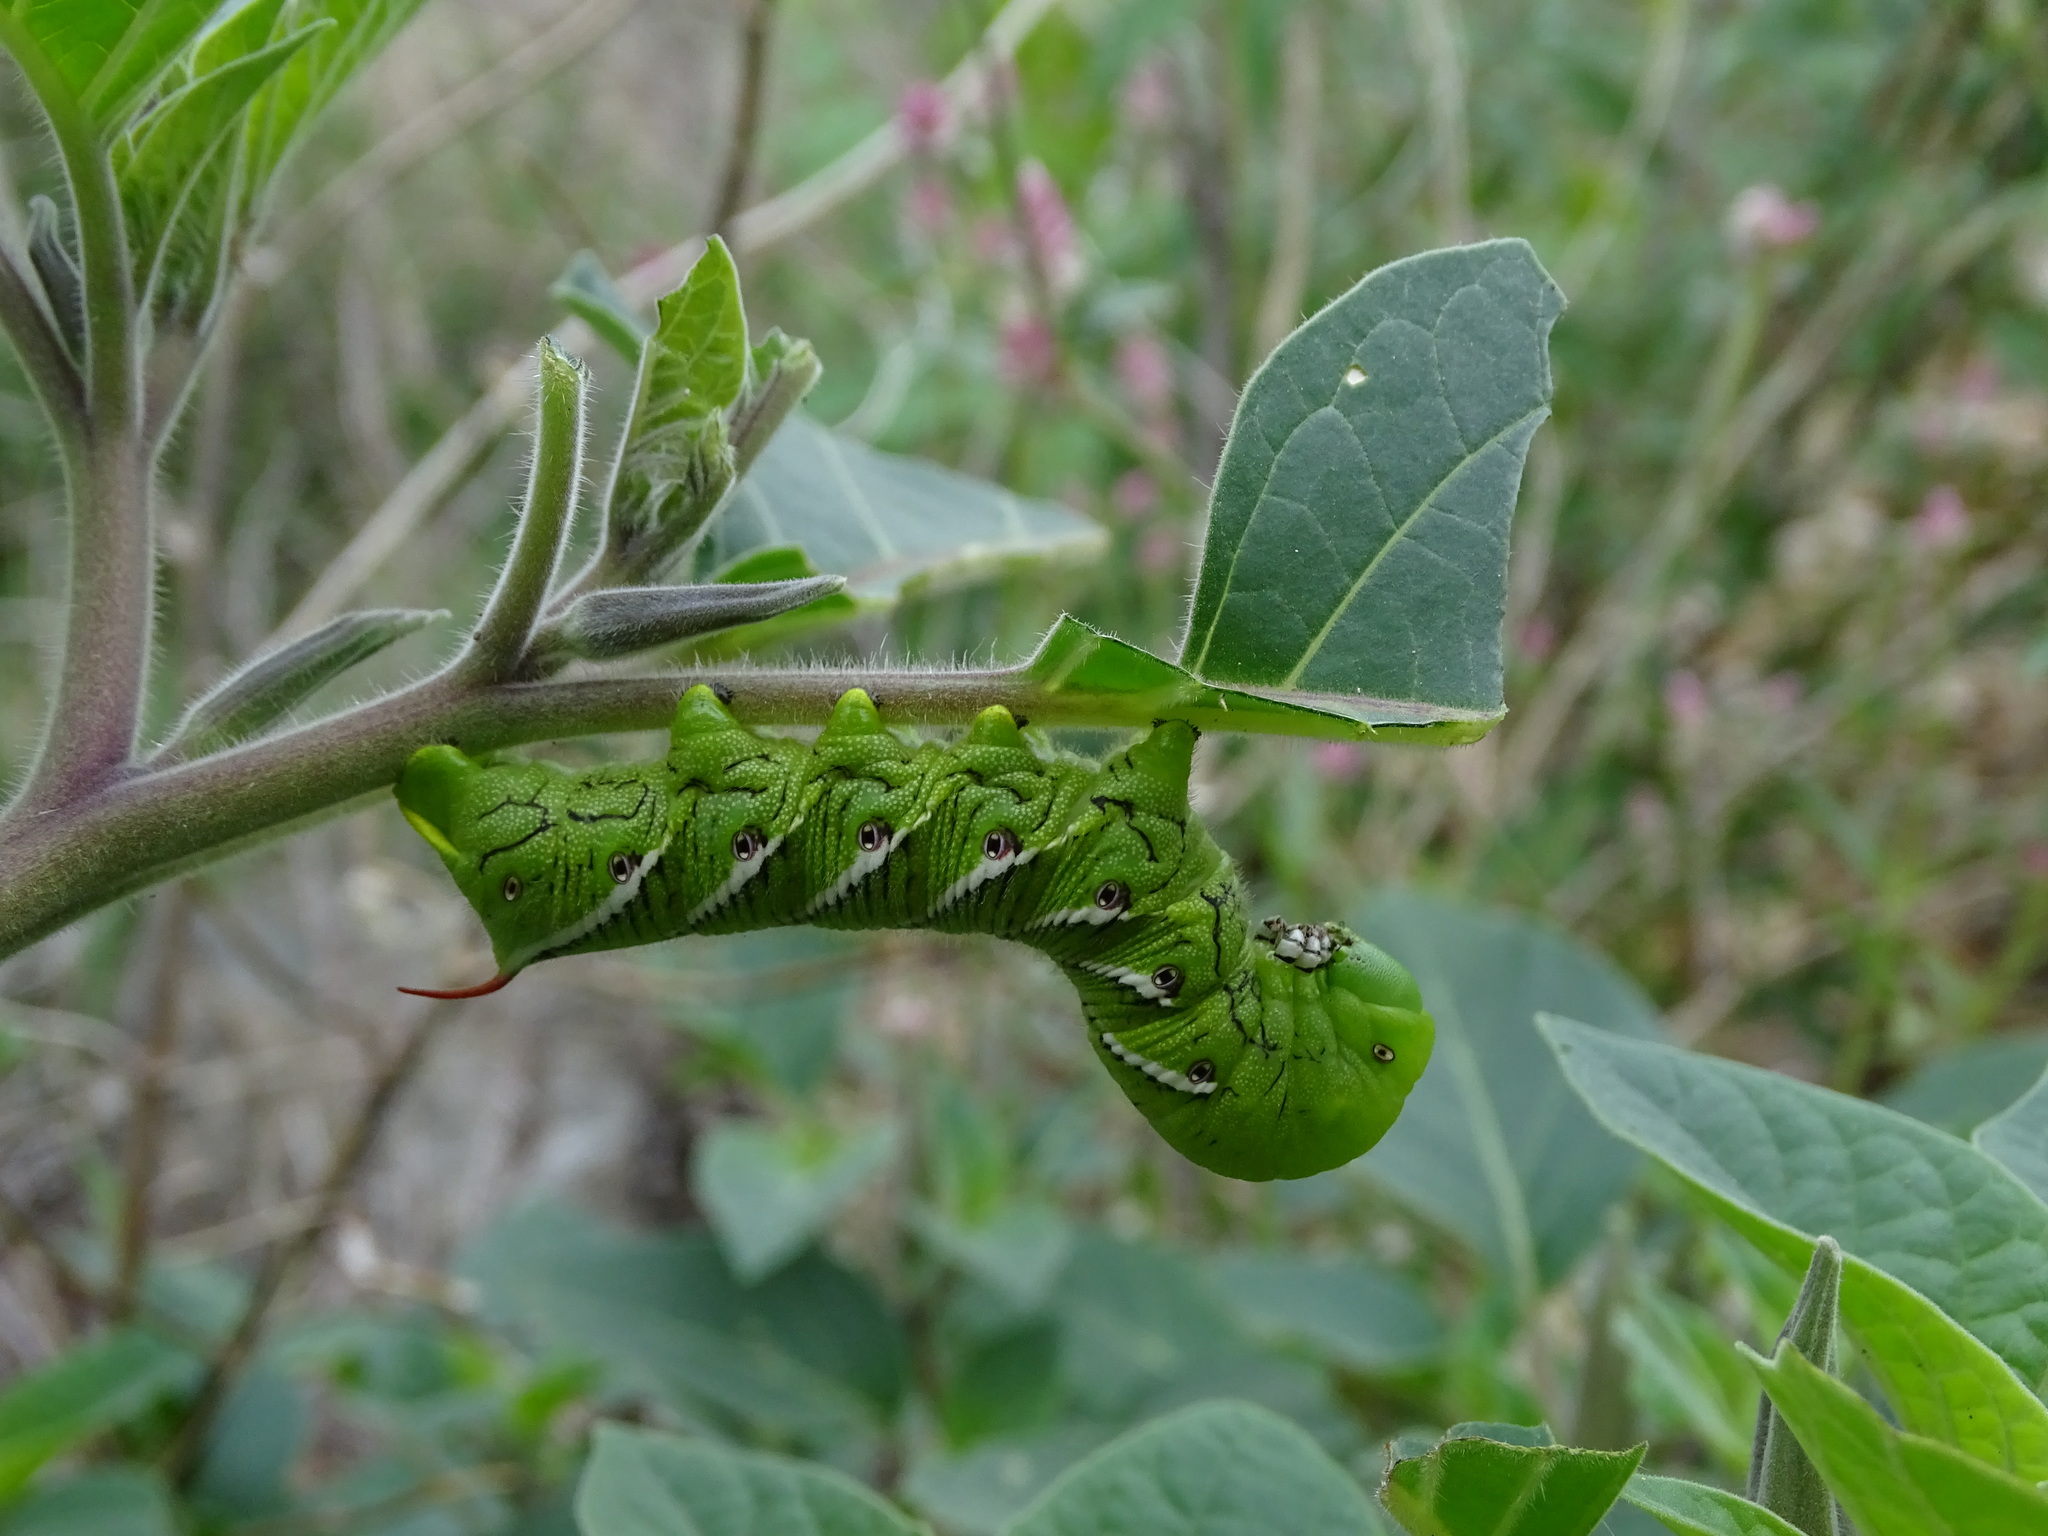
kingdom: Animalia
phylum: Arthropoda
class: Insecta
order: Lepidoptera
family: Sphingidae
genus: Manduca
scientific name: Manduca sexta
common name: Carolina sphinx
